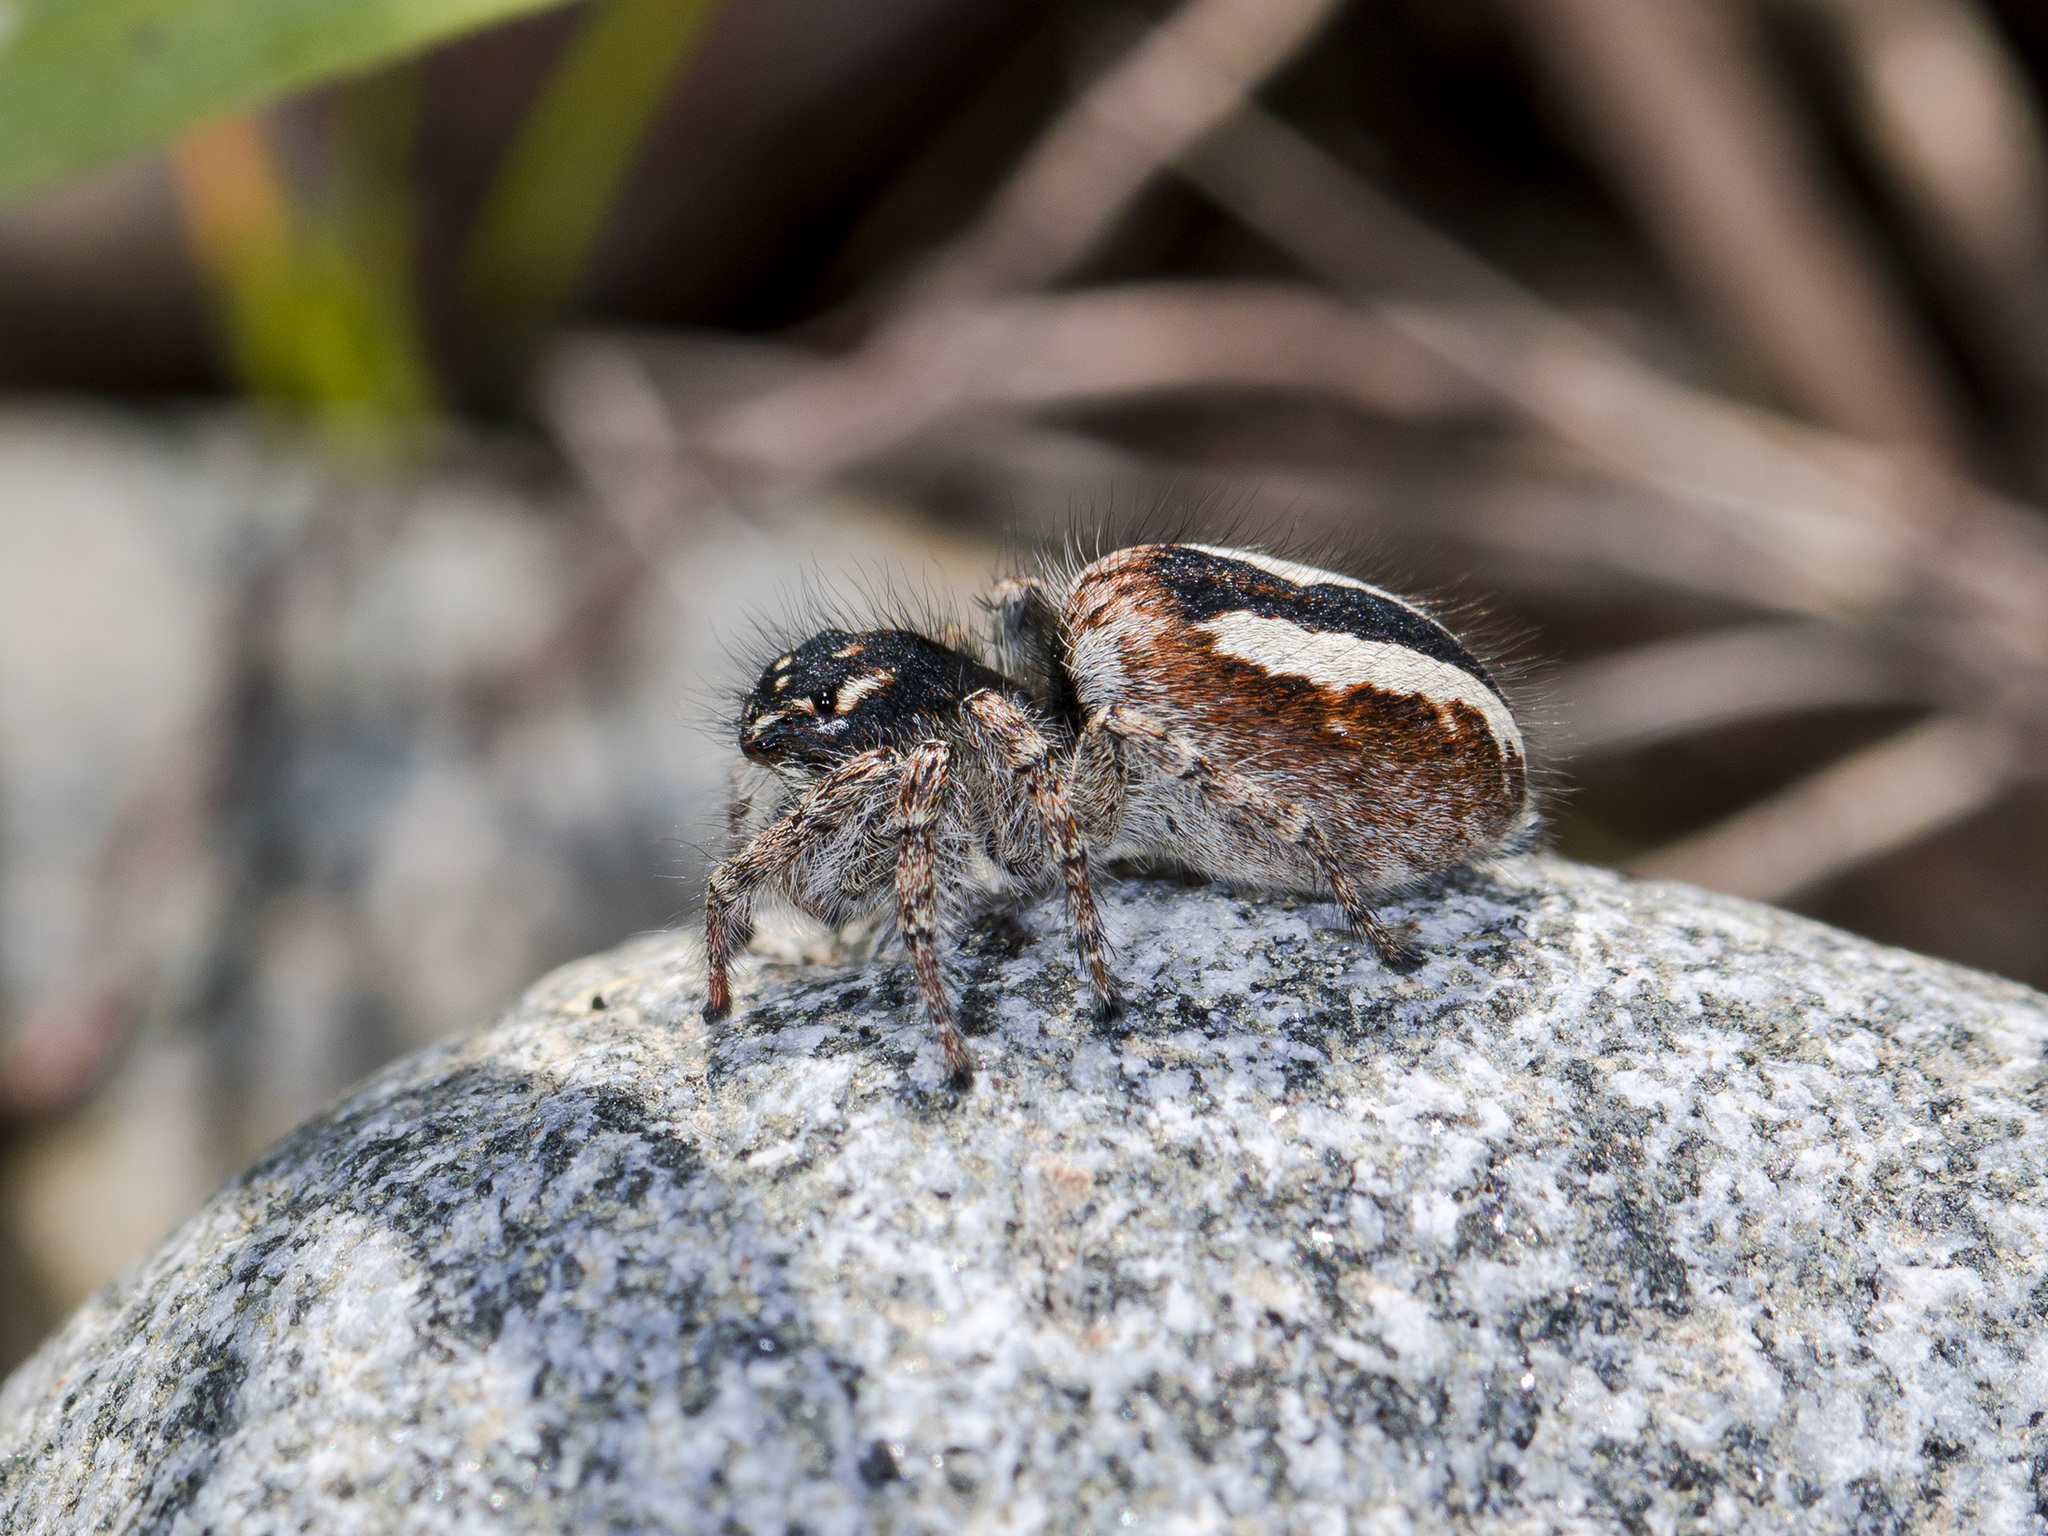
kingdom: Animalia
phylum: Arthropoda
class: Arachnida
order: Araneae
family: Salticidae
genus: Philaeus
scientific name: Philaeus chrysops
